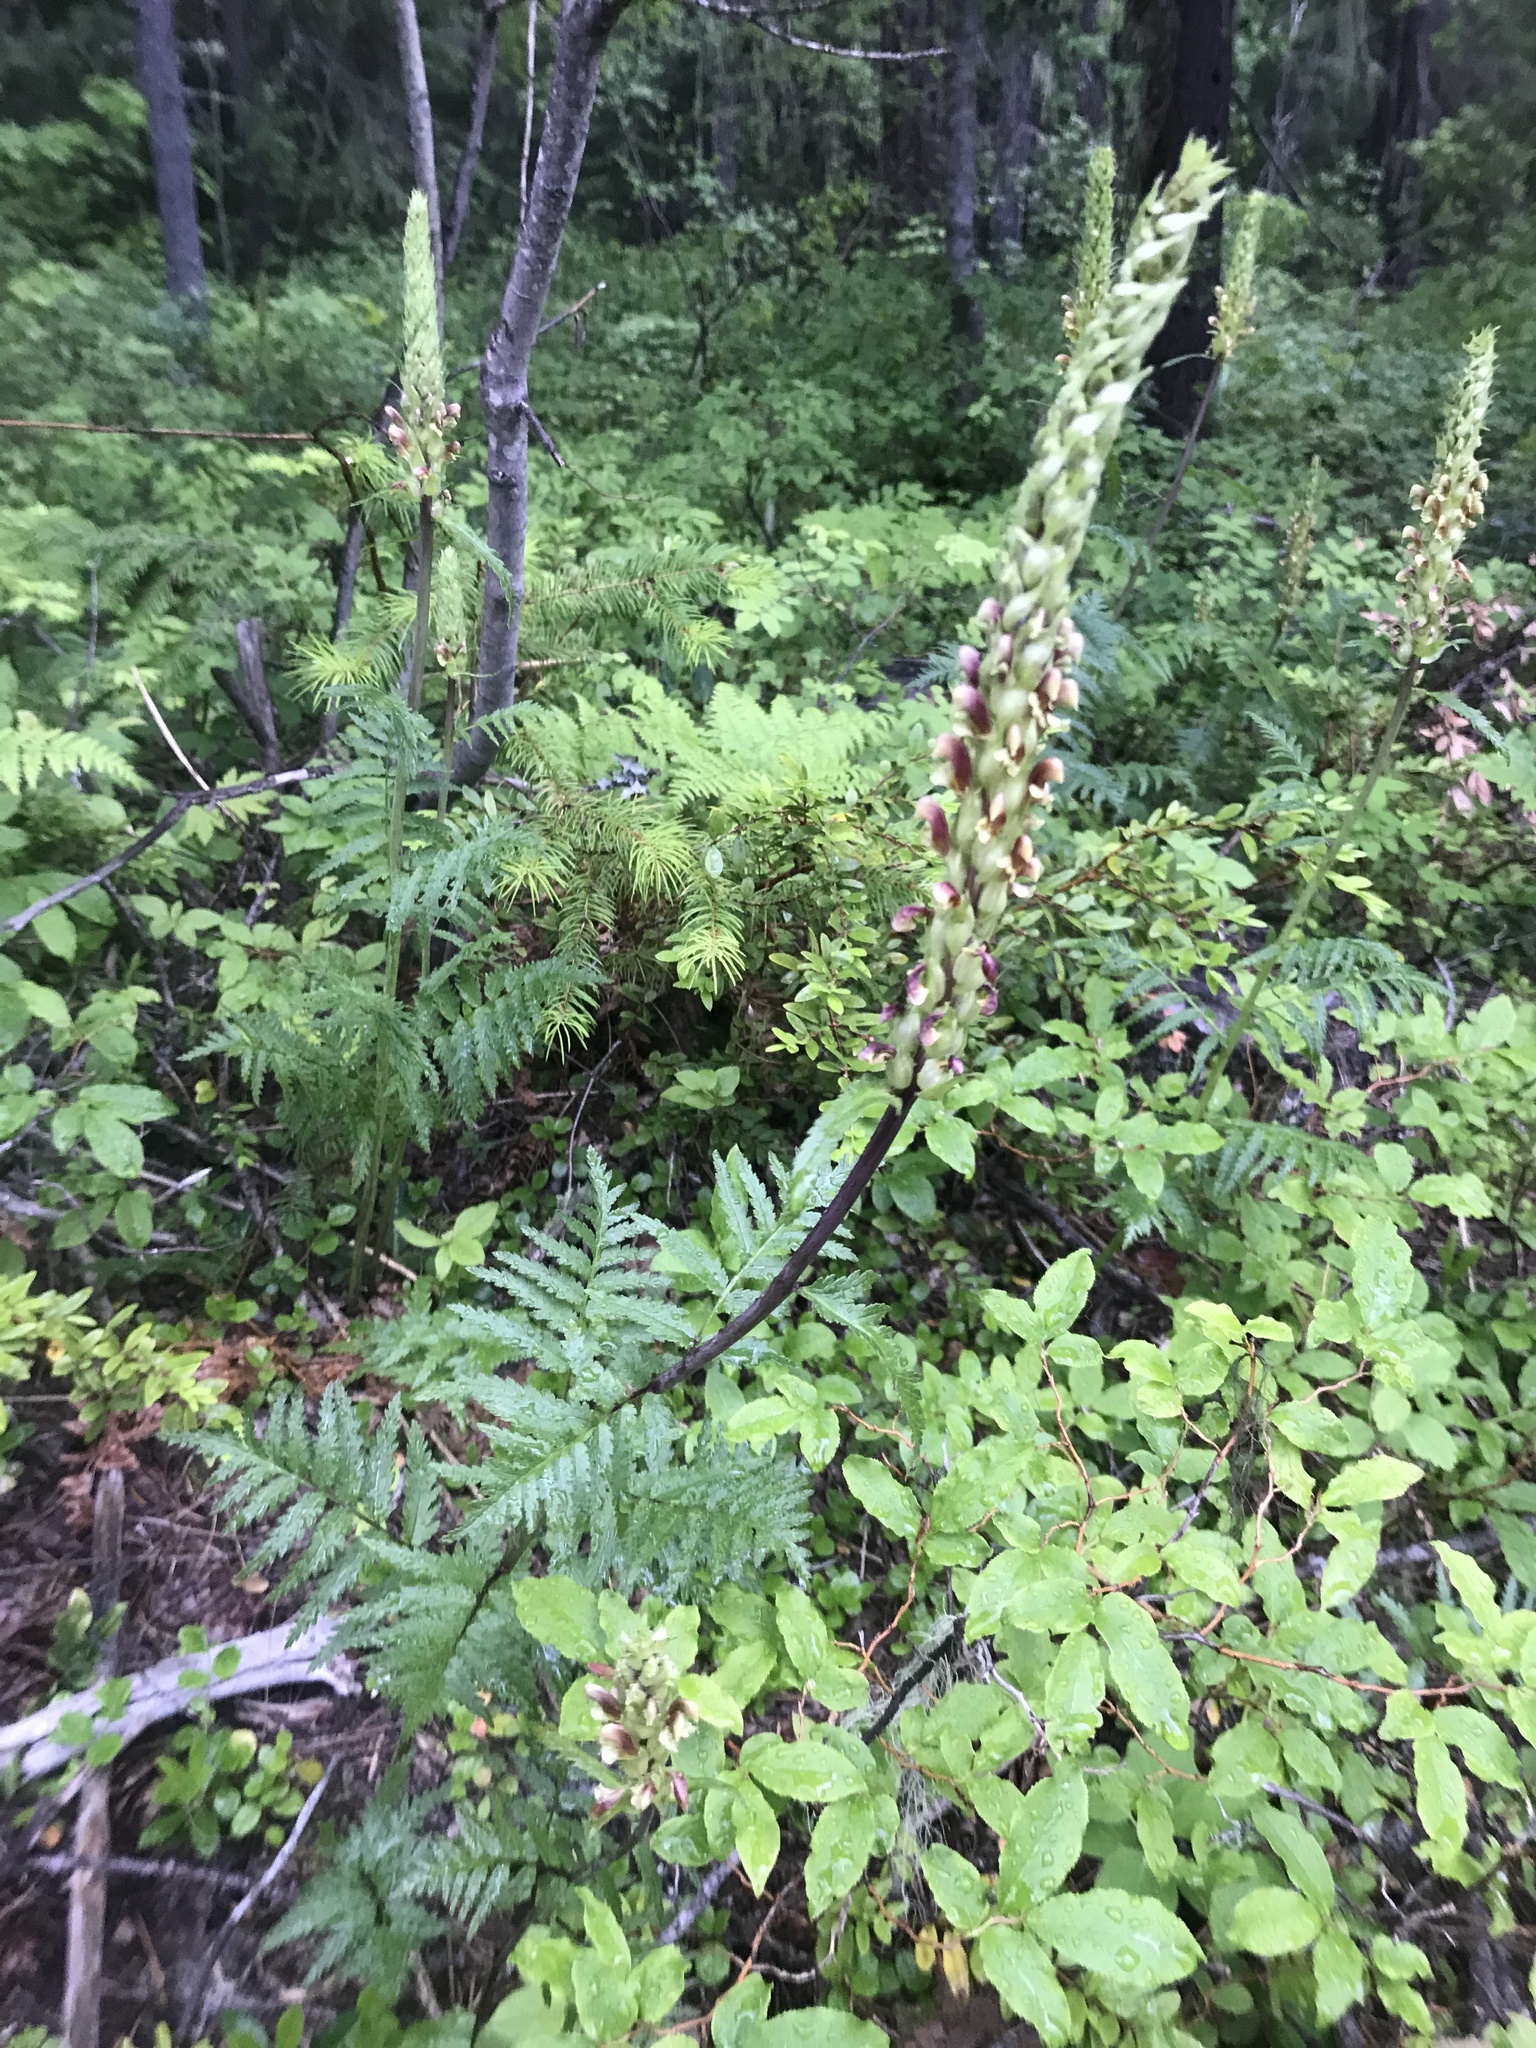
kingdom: Plantae
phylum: Tracheophyta
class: Magnoliopsida
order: Lamiales
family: Orobanchaceae
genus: Pedicularis
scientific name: Pedicularis bracteosa
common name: Bracted lousewort
